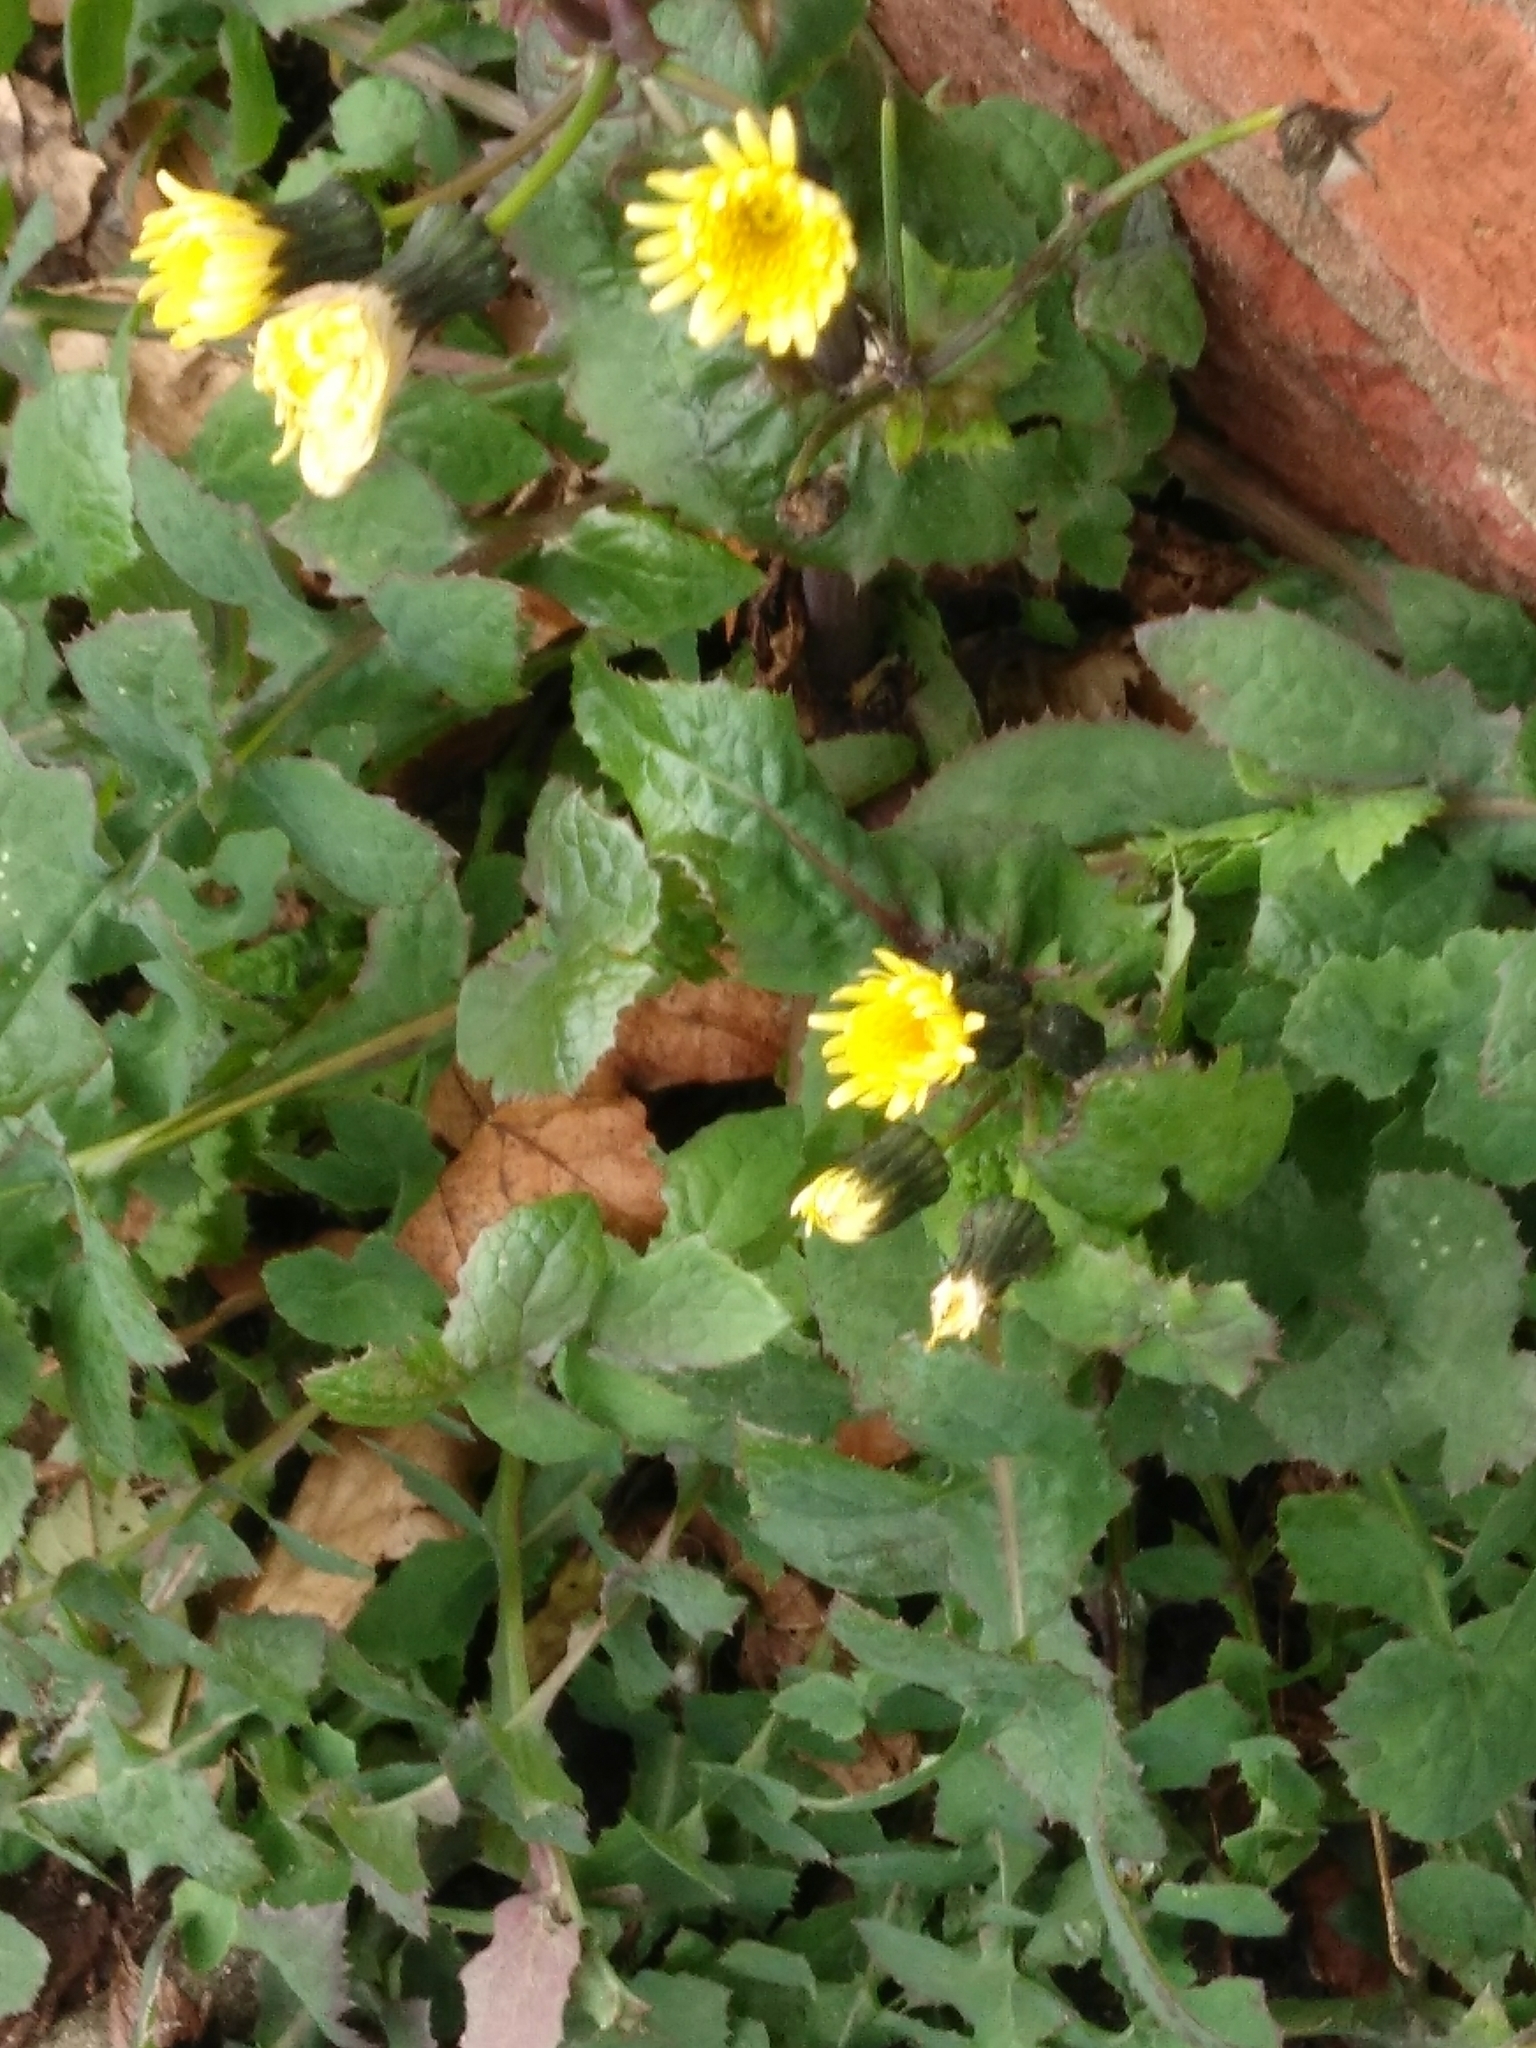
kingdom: Plantae
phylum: Tracheophyta
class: Magnoliopsida
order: Asterales
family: Asteraceae
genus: Sonchus
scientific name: Sonchus oleraceus
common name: Common sowthistle
